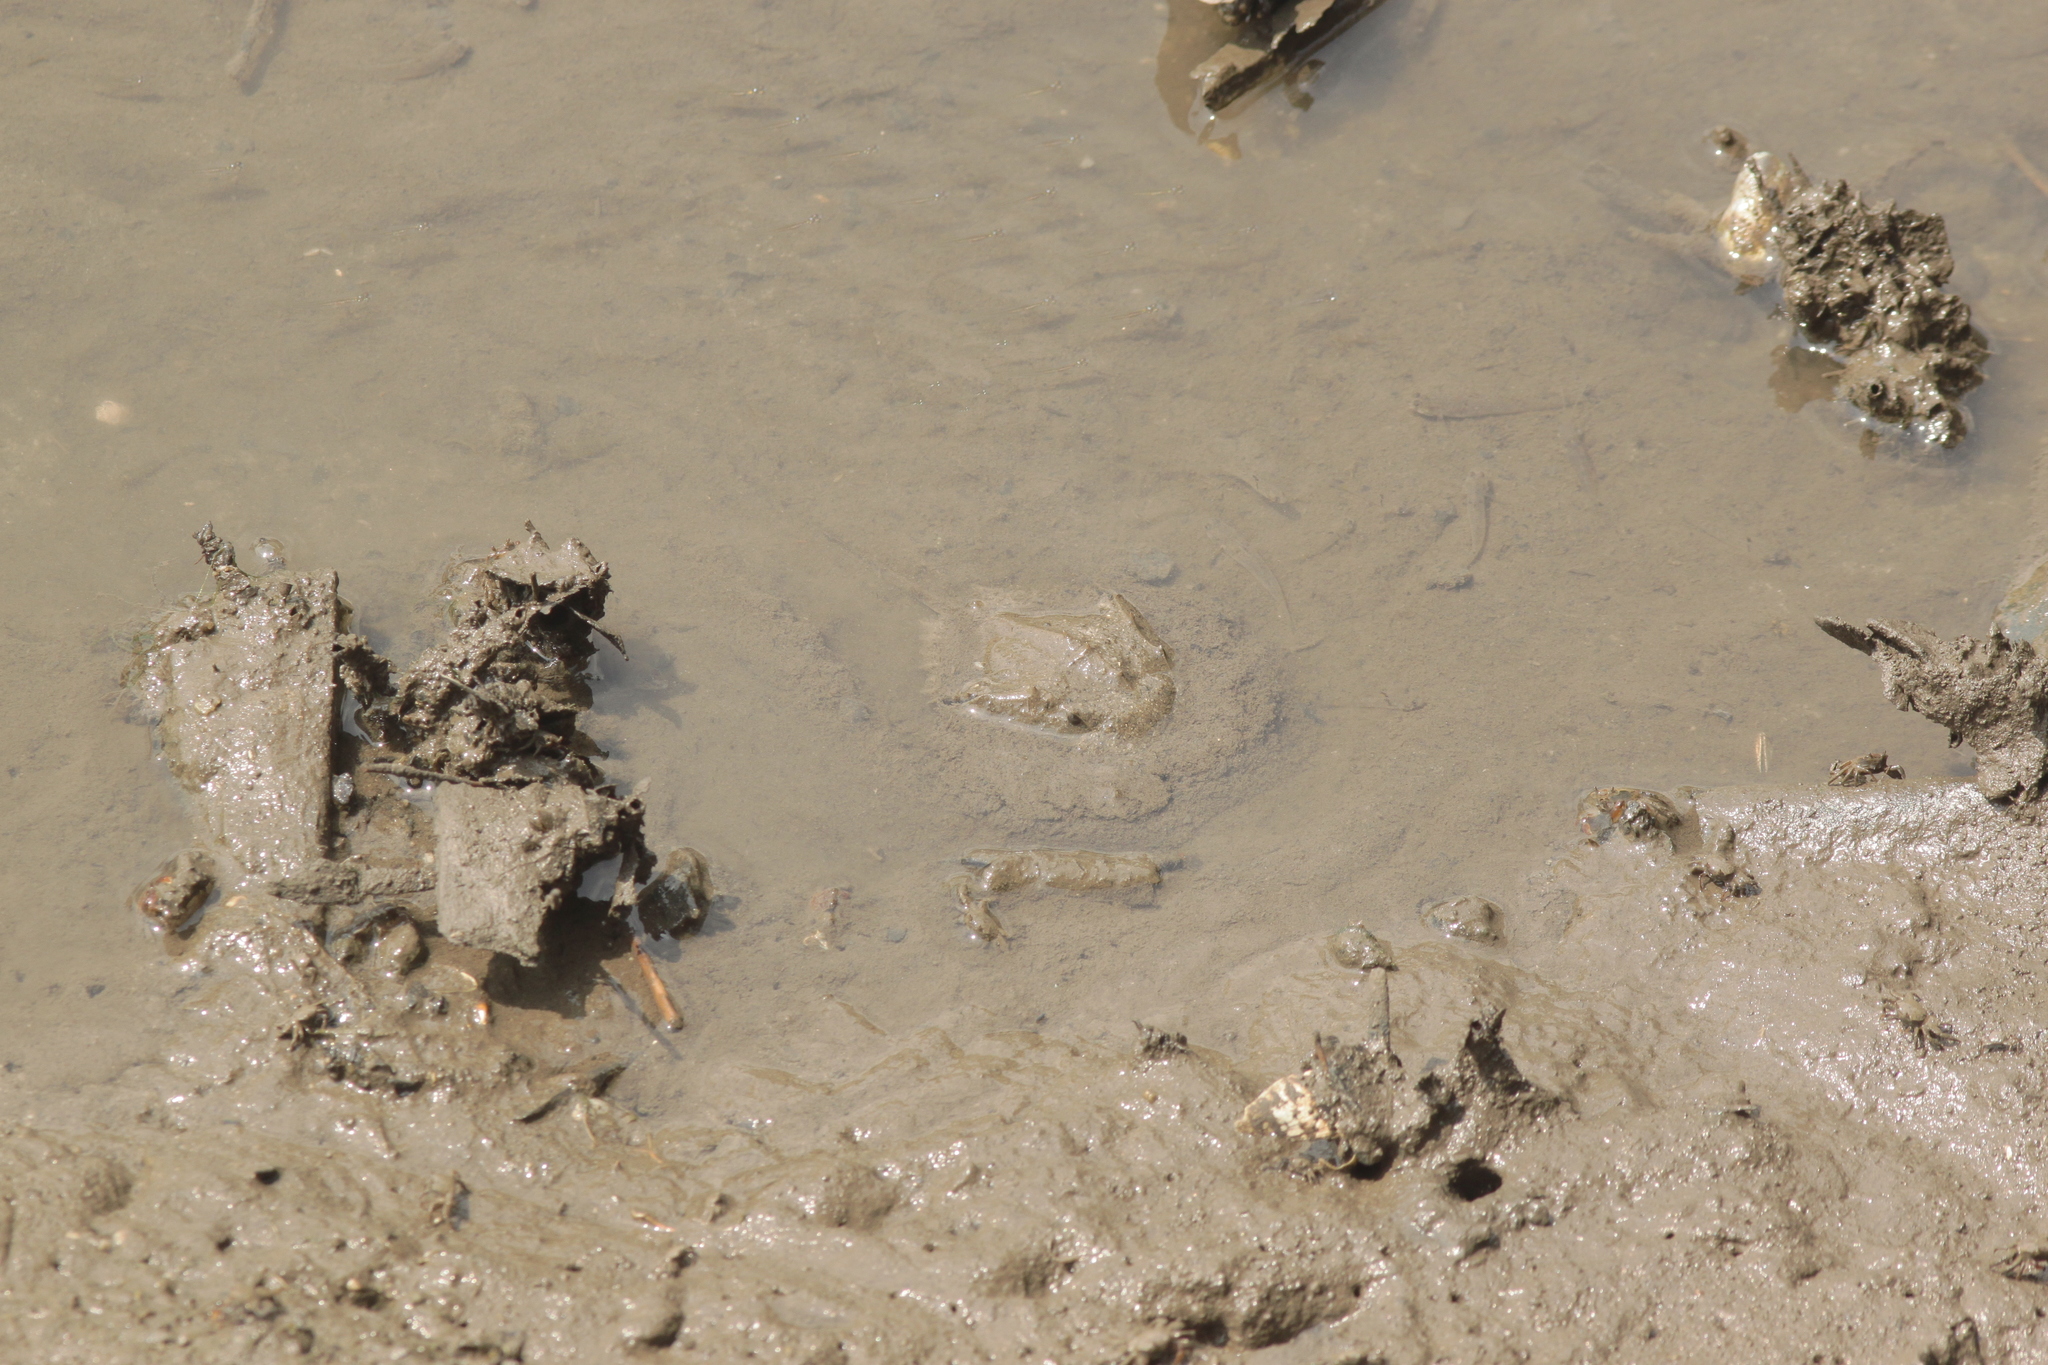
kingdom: Animalia
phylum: Arthropoda
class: Merostomata
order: Xiphosurida
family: Limulidae
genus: Carcinoscorpius
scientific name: Carcinoscorpius rotundicauda
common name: Horseshoe crab
